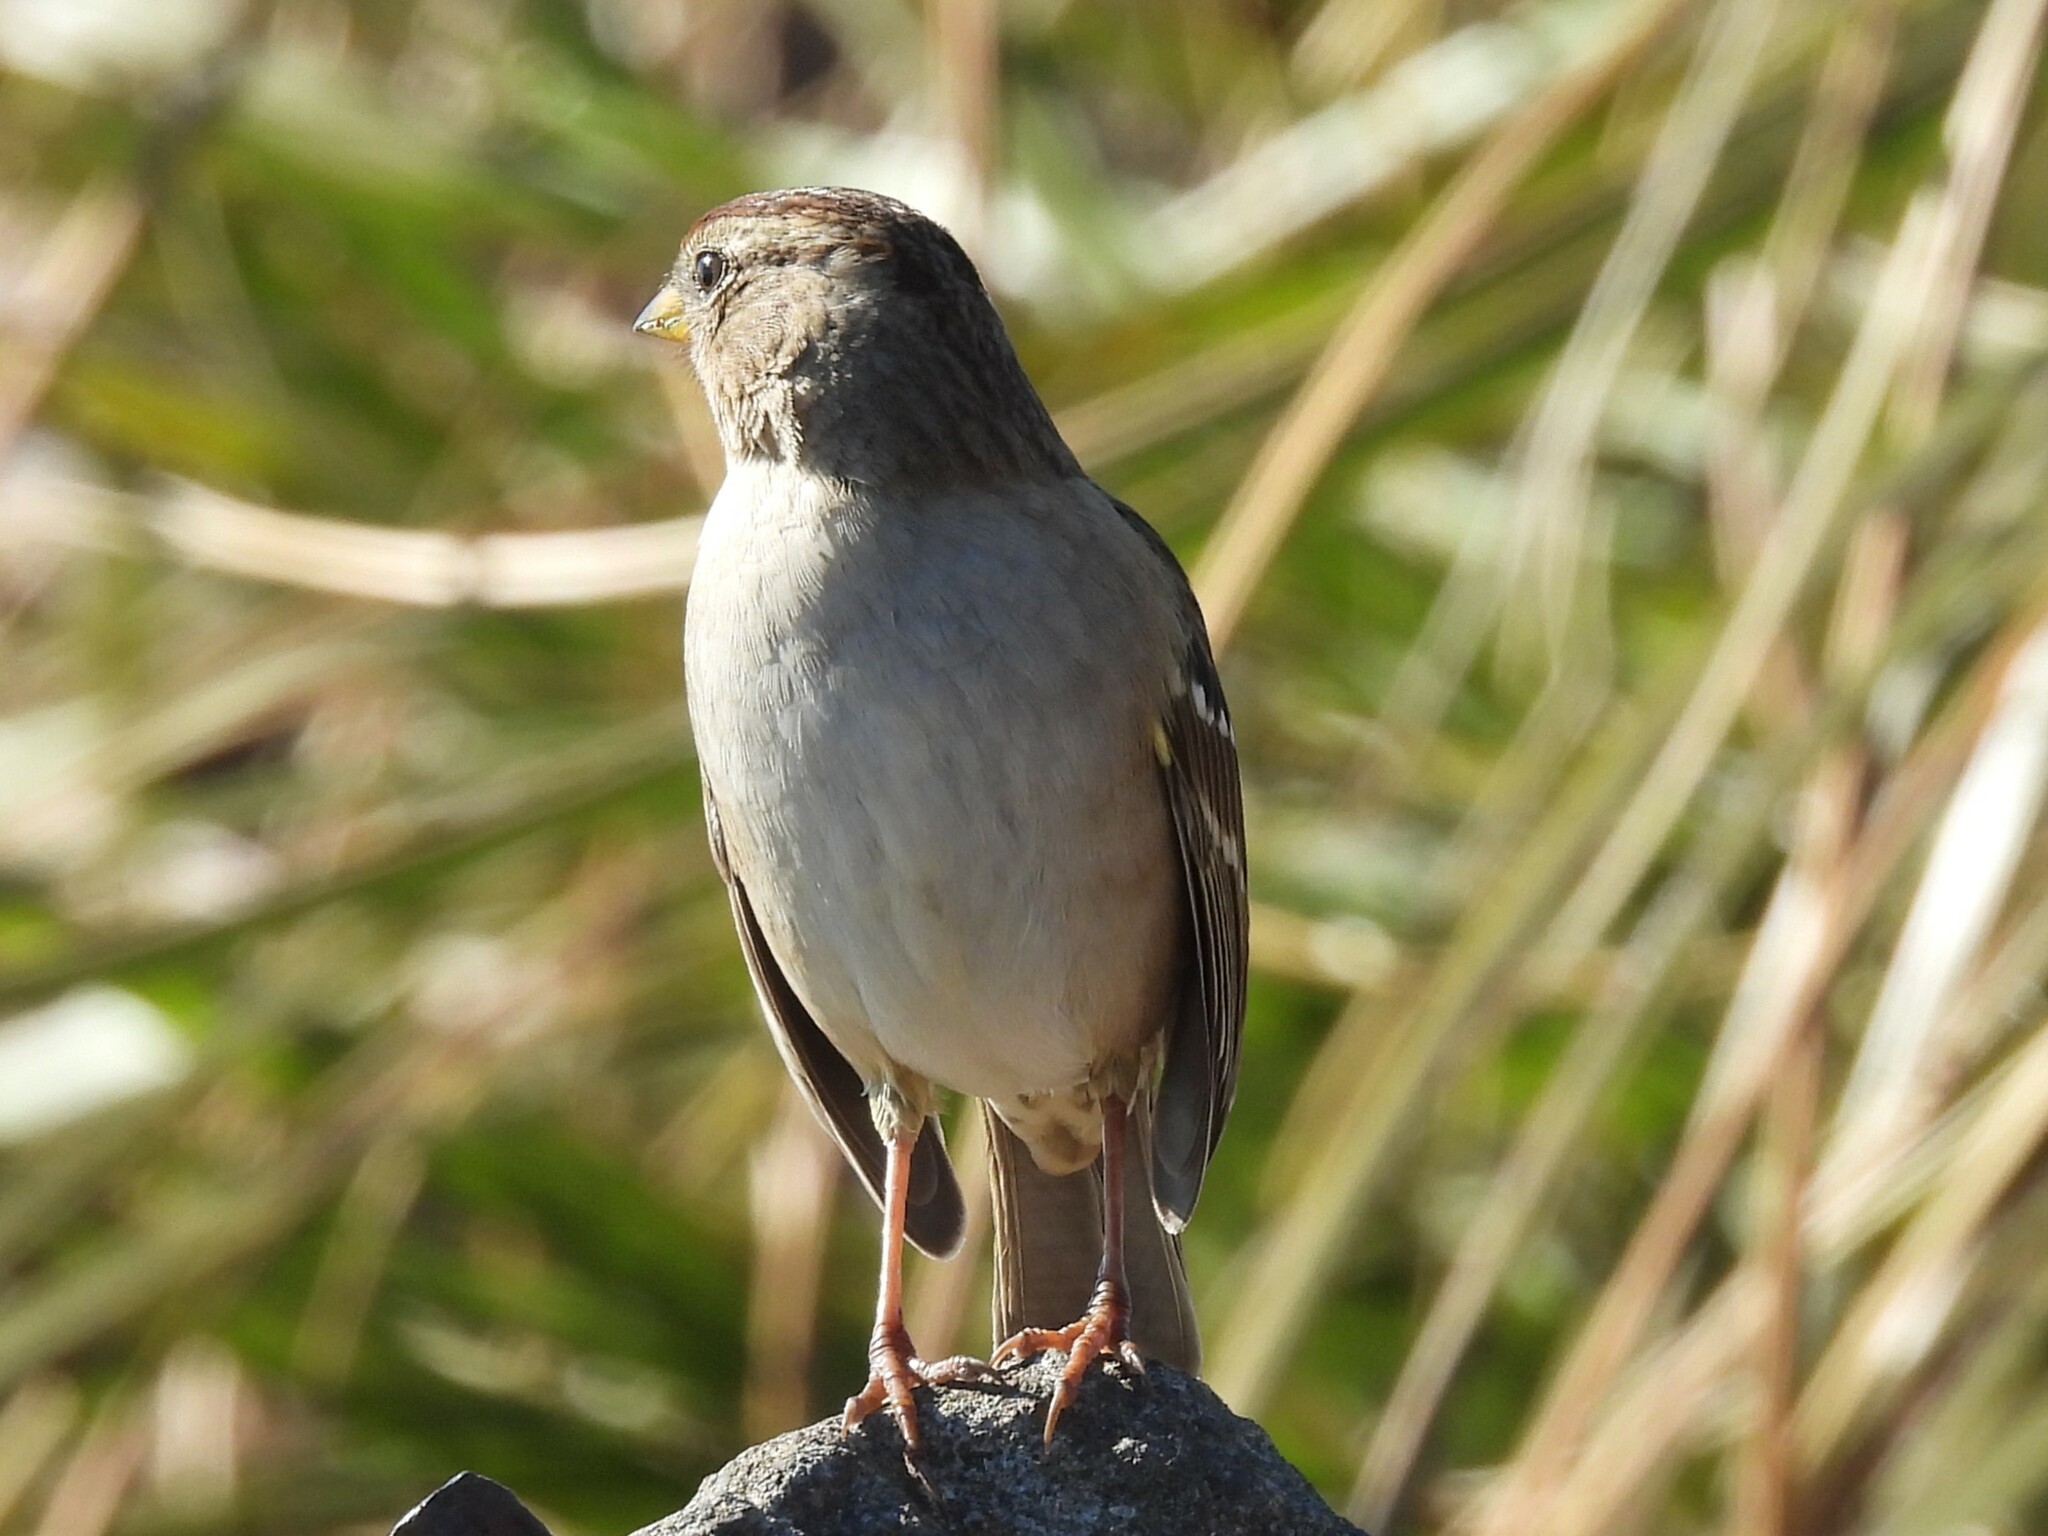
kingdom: Animalia
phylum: Chordata
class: Aves
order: Passeriformes
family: Passerellidae
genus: Zonotrichia
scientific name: Zonotrichia leucophrys
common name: White-crowned sparrow
